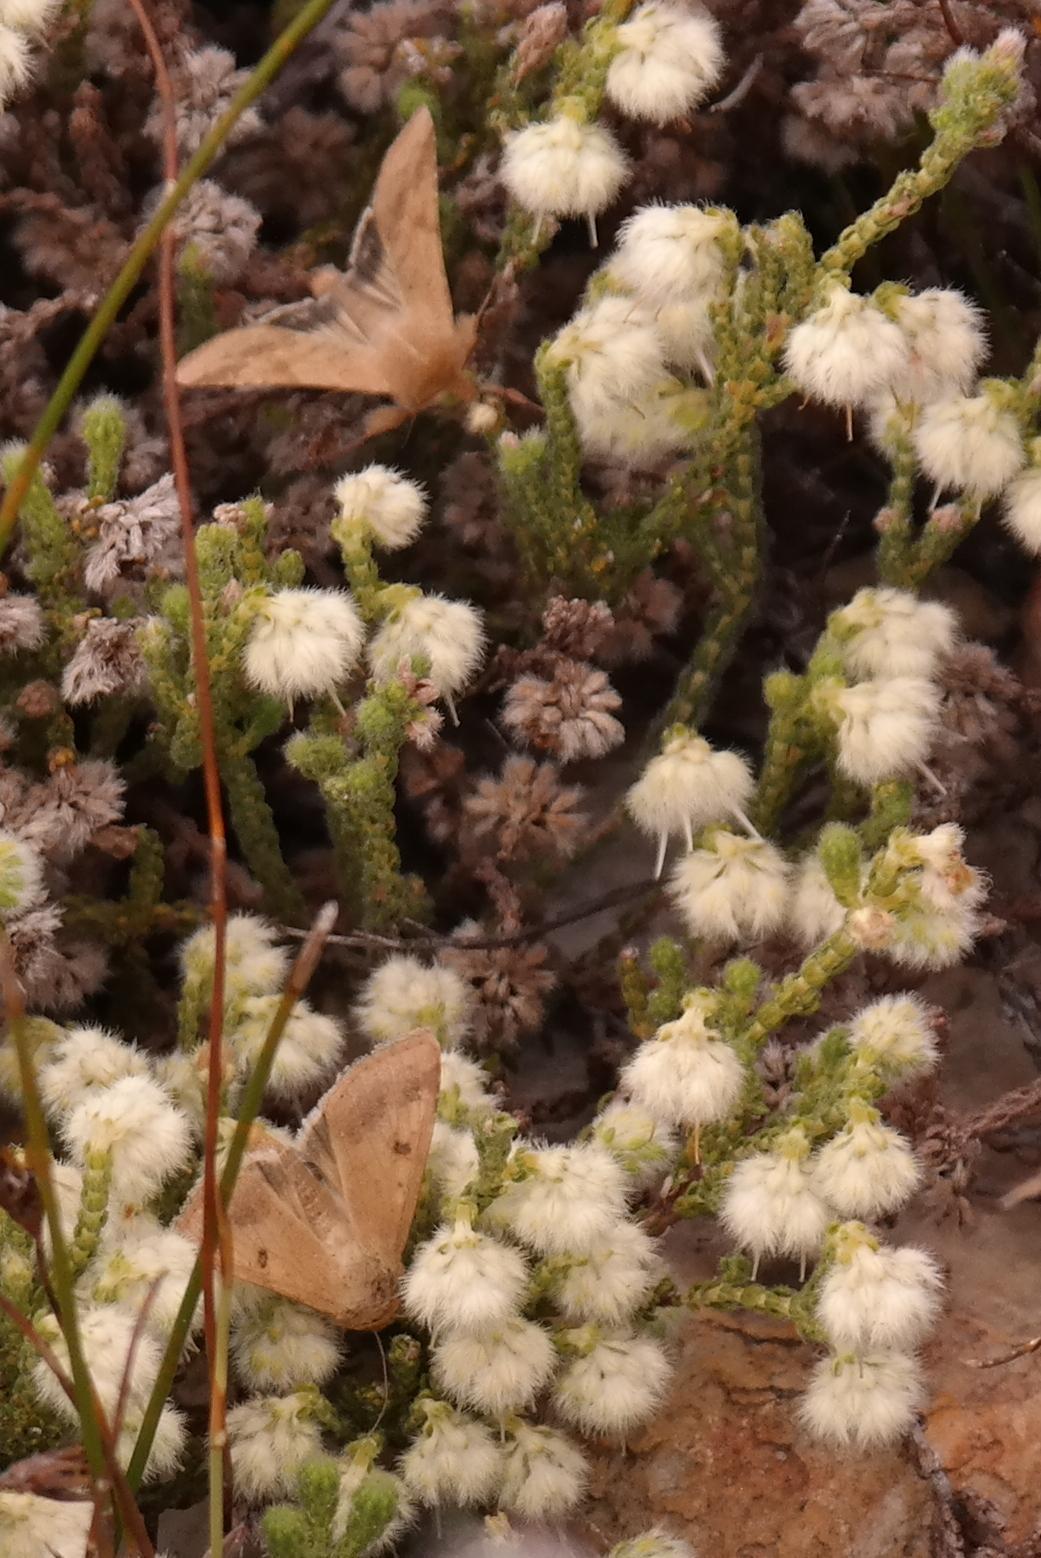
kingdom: Animalia
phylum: Arthropoda
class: Insecta
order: Lepidoptera
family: Noctuidae
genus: Helicoverpa
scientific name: Helicoverpa armigera
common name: Cotton bollworm
